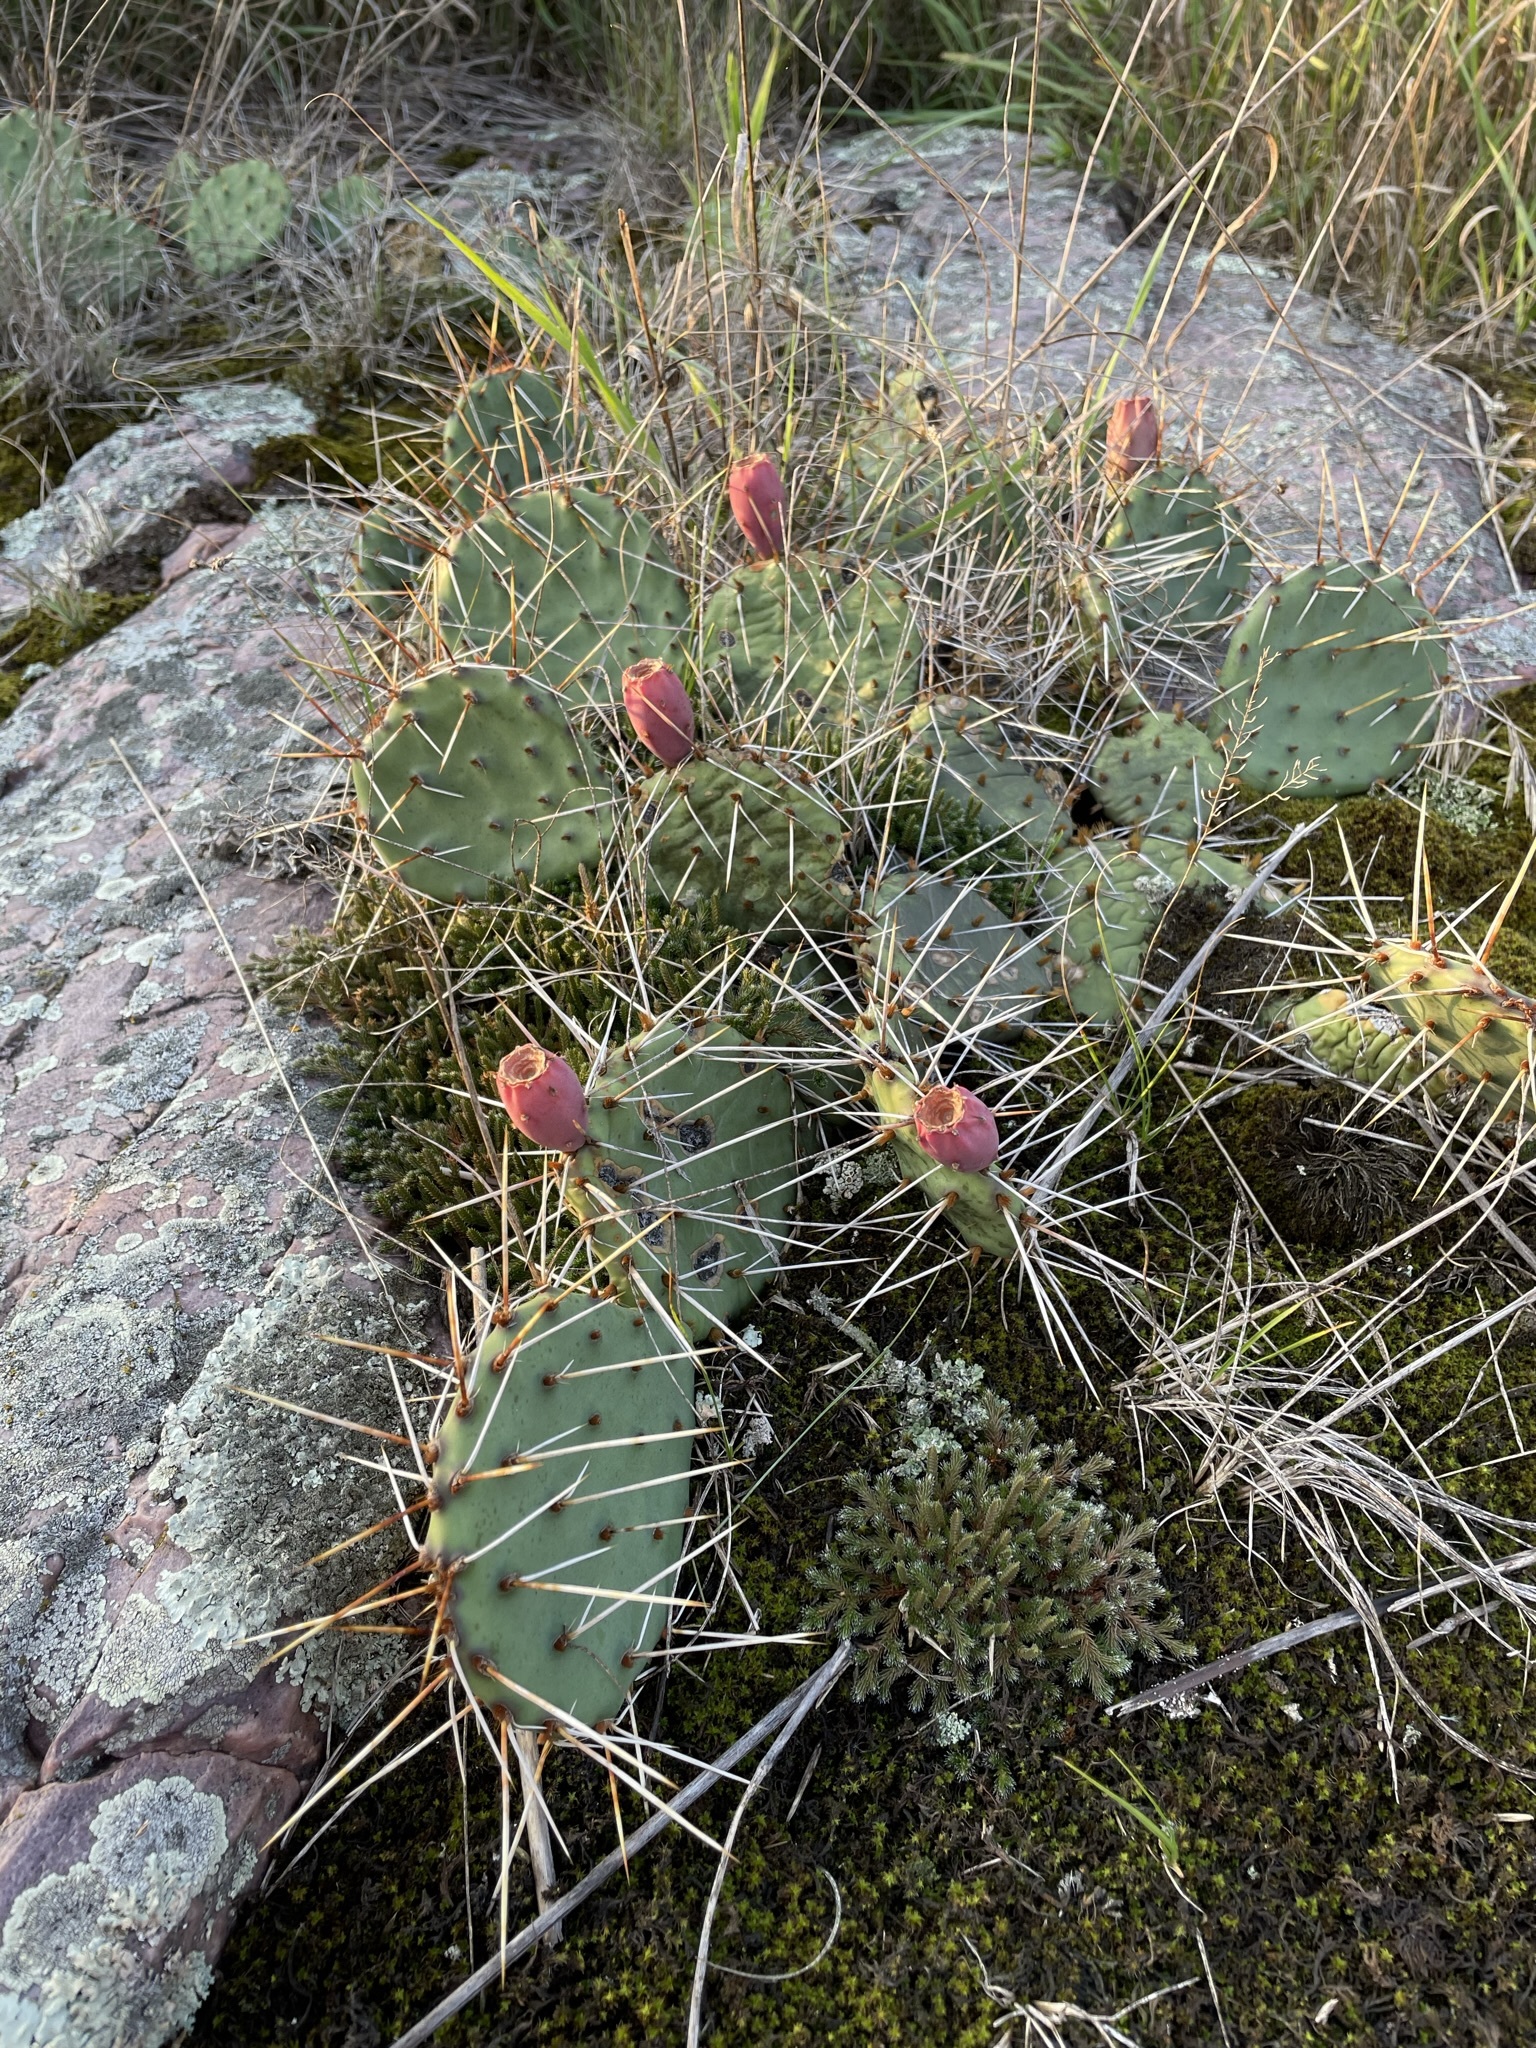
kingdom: Plantae
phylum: Tracheophyta
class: Magnoliopsida
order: Caryophyllales
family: Cactaceae
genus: Opuntia
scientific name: Opuntia macrorhiza
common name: Grassland pricklypear
